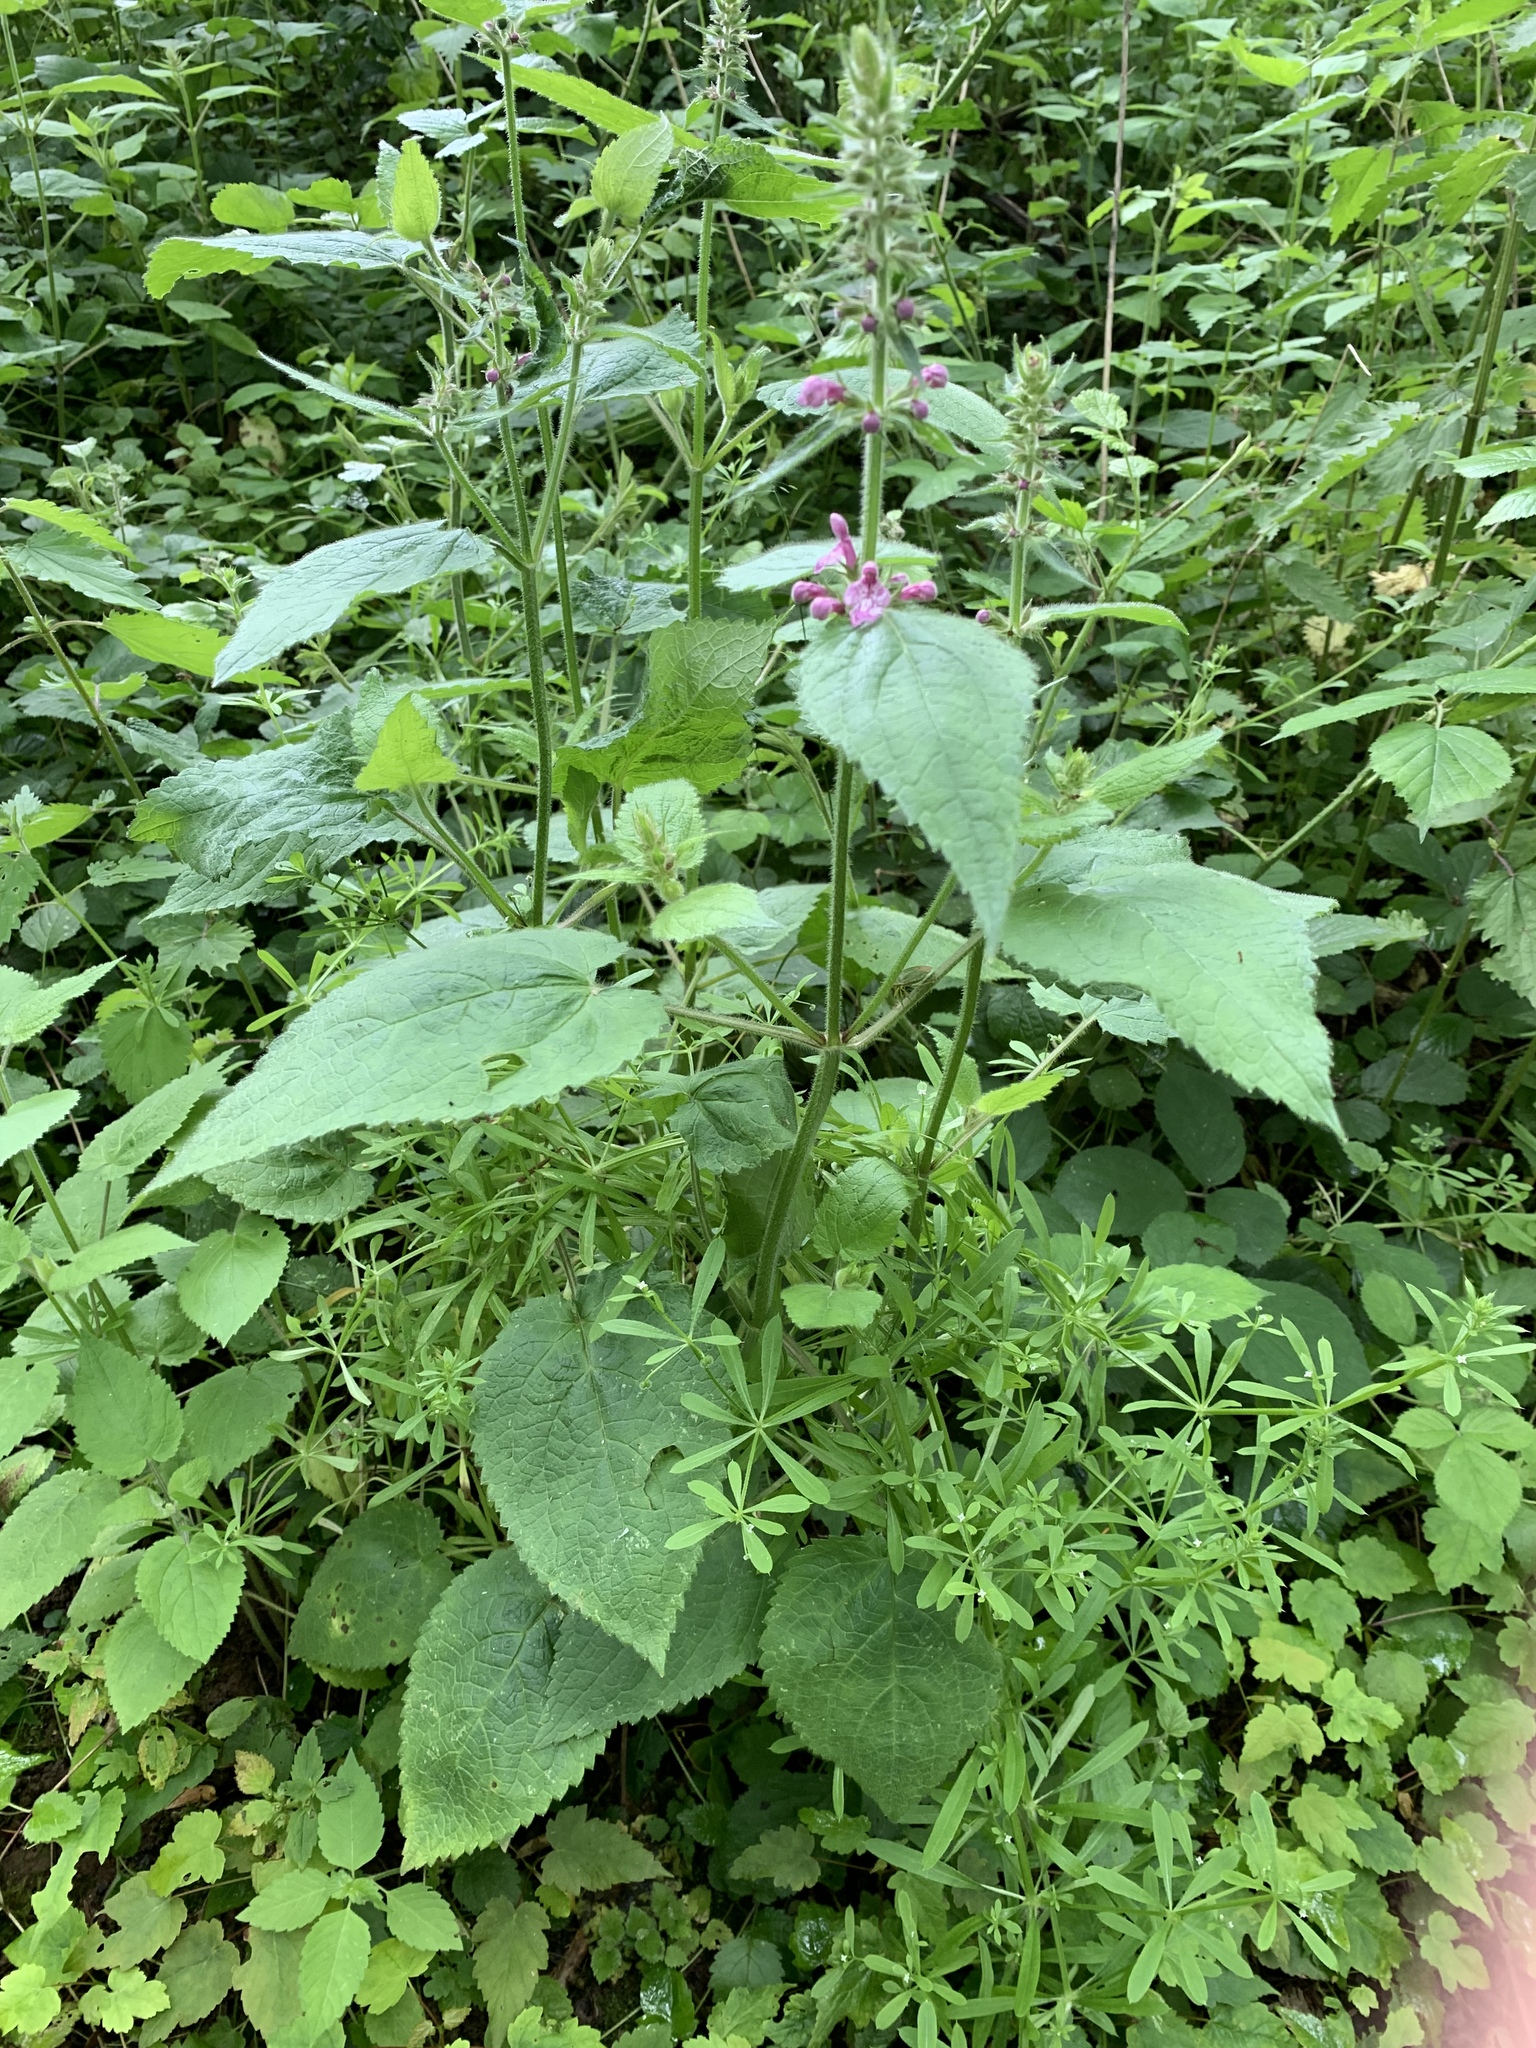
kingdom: Plantae
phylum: Tracheophyta
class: Magnoliopsida
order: Lamiales
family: Lamiaceae
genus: Stachys
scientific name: Stachys sylvatica
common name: Hedge woundwort
